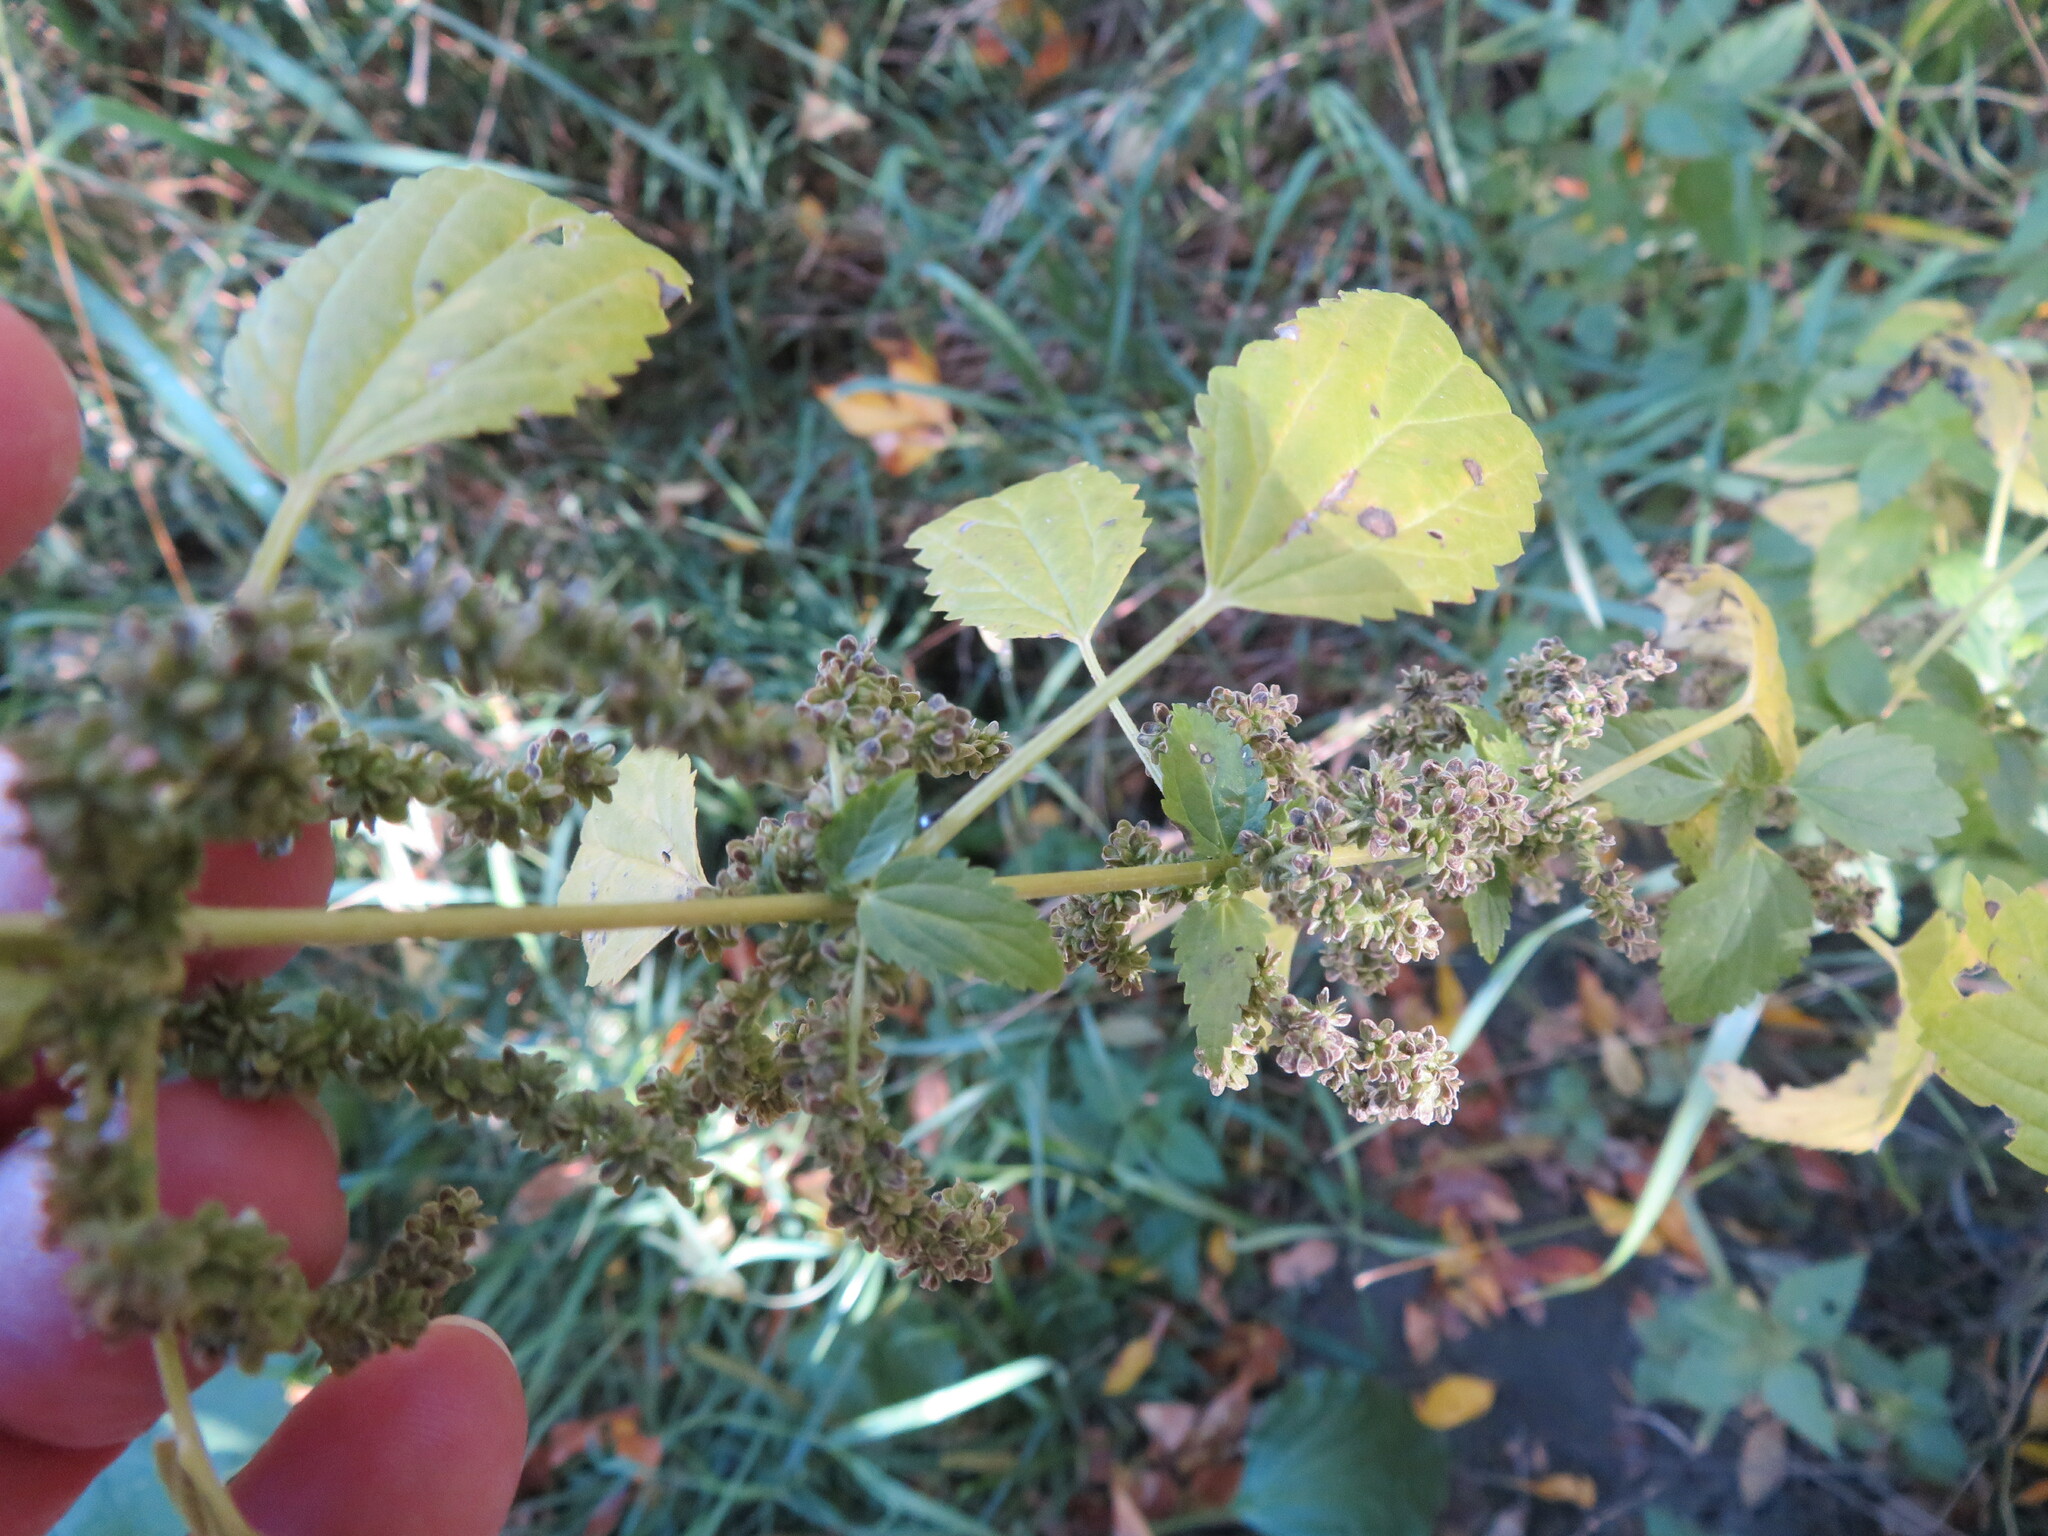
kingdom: Plantae
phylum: Tracheophyta
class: Magnoliopsida
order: Rosales
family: Urticaceae
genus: Urtica
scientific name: Urtica gracilis
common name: Slender stinging nettle
